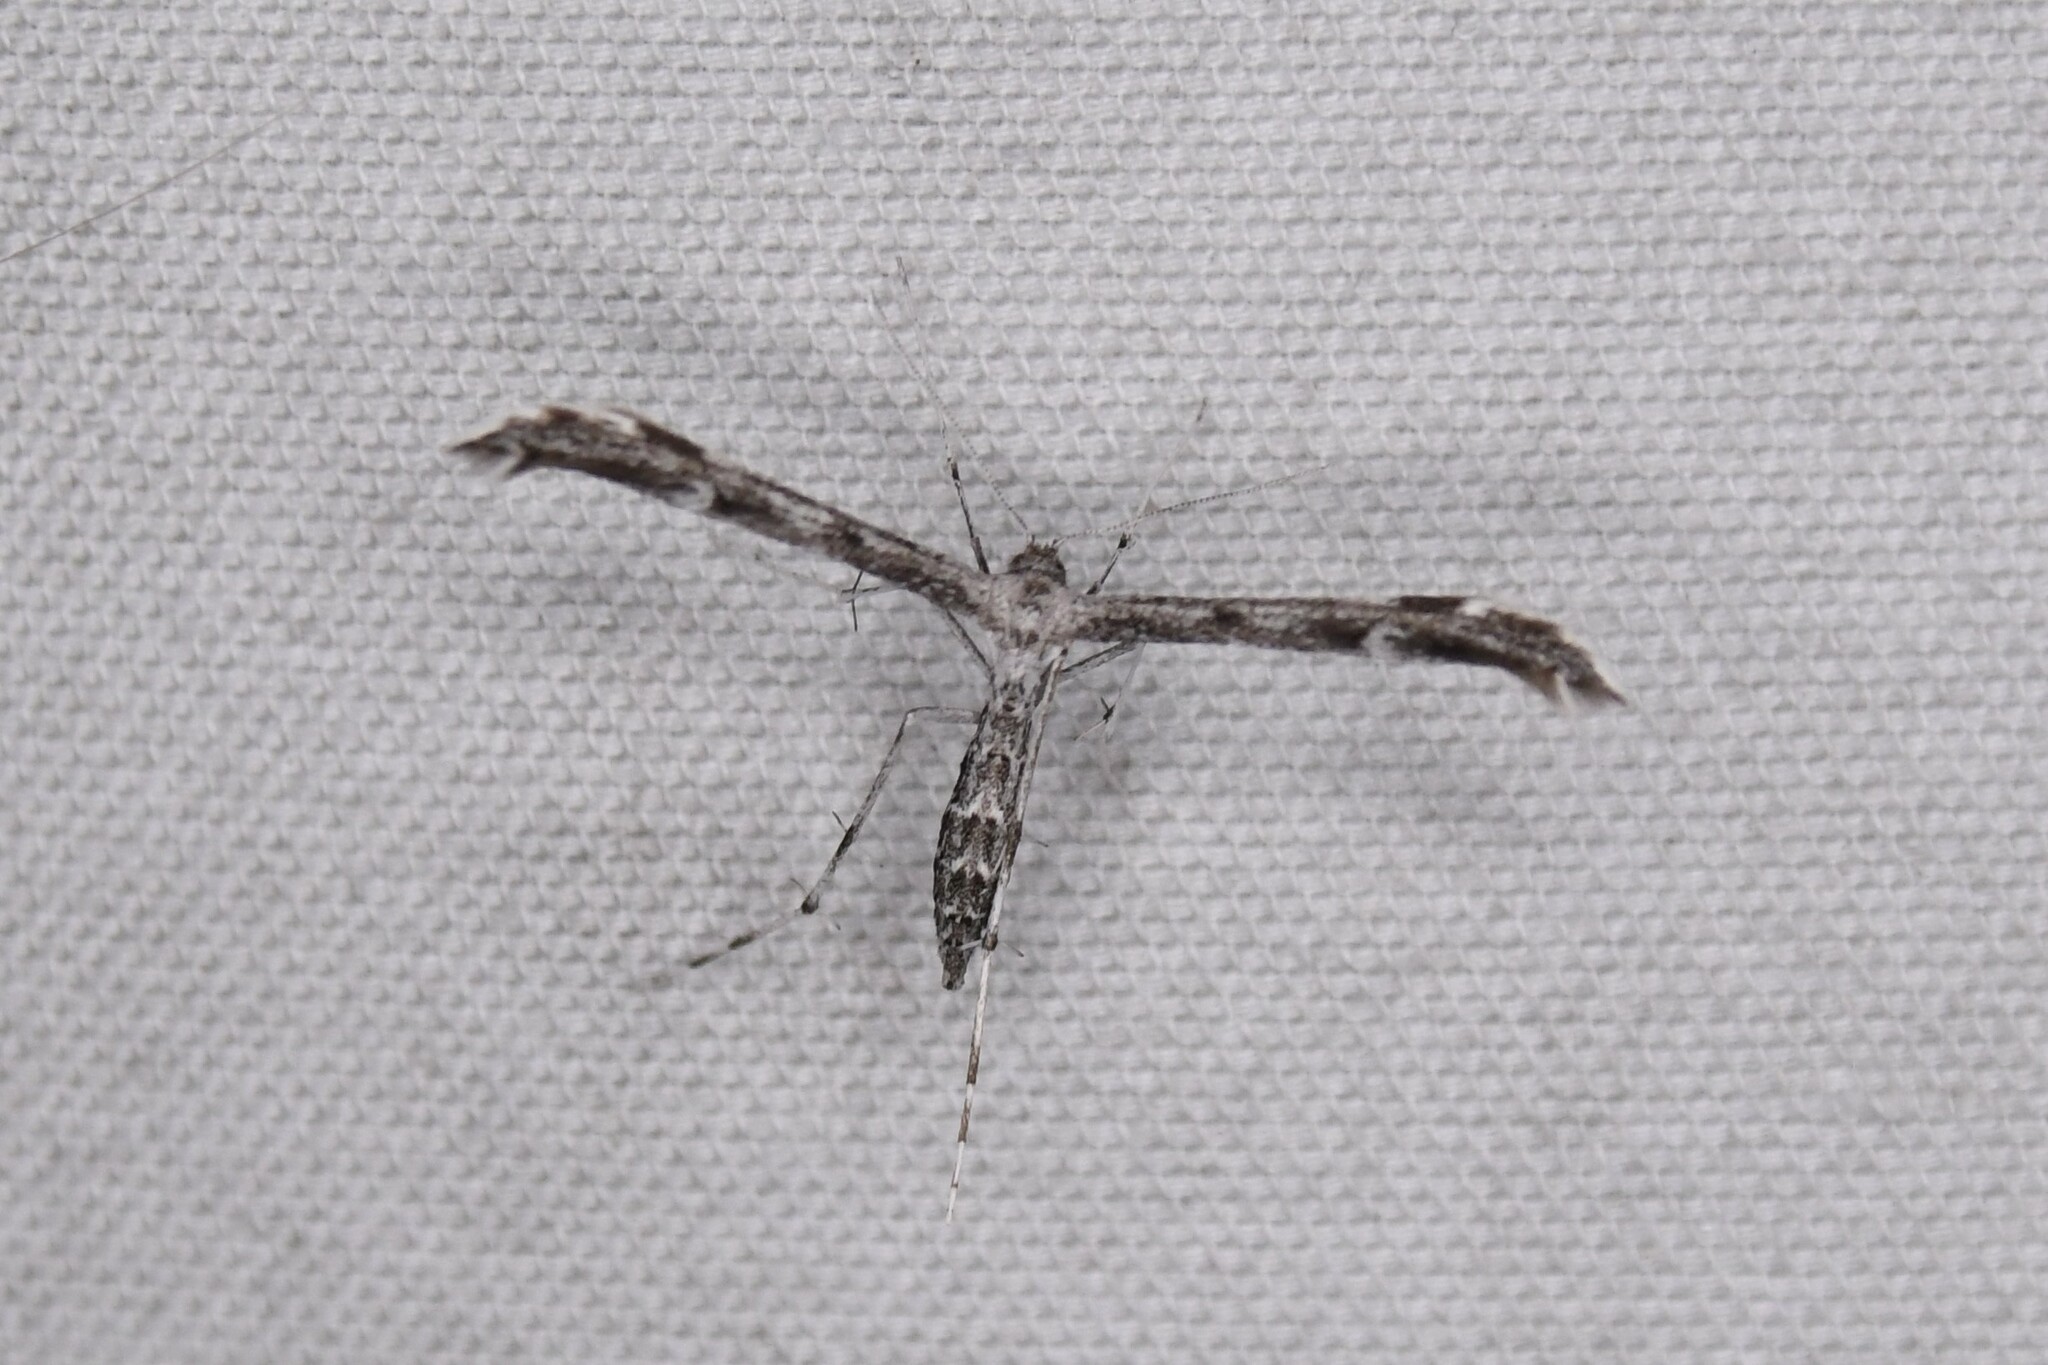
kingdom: Animalia
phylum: Arthropoda
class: Insecta
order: Lepidoptera
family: Pterophoridae
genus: Hellinsia
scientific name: Hellinsia inquinatus
